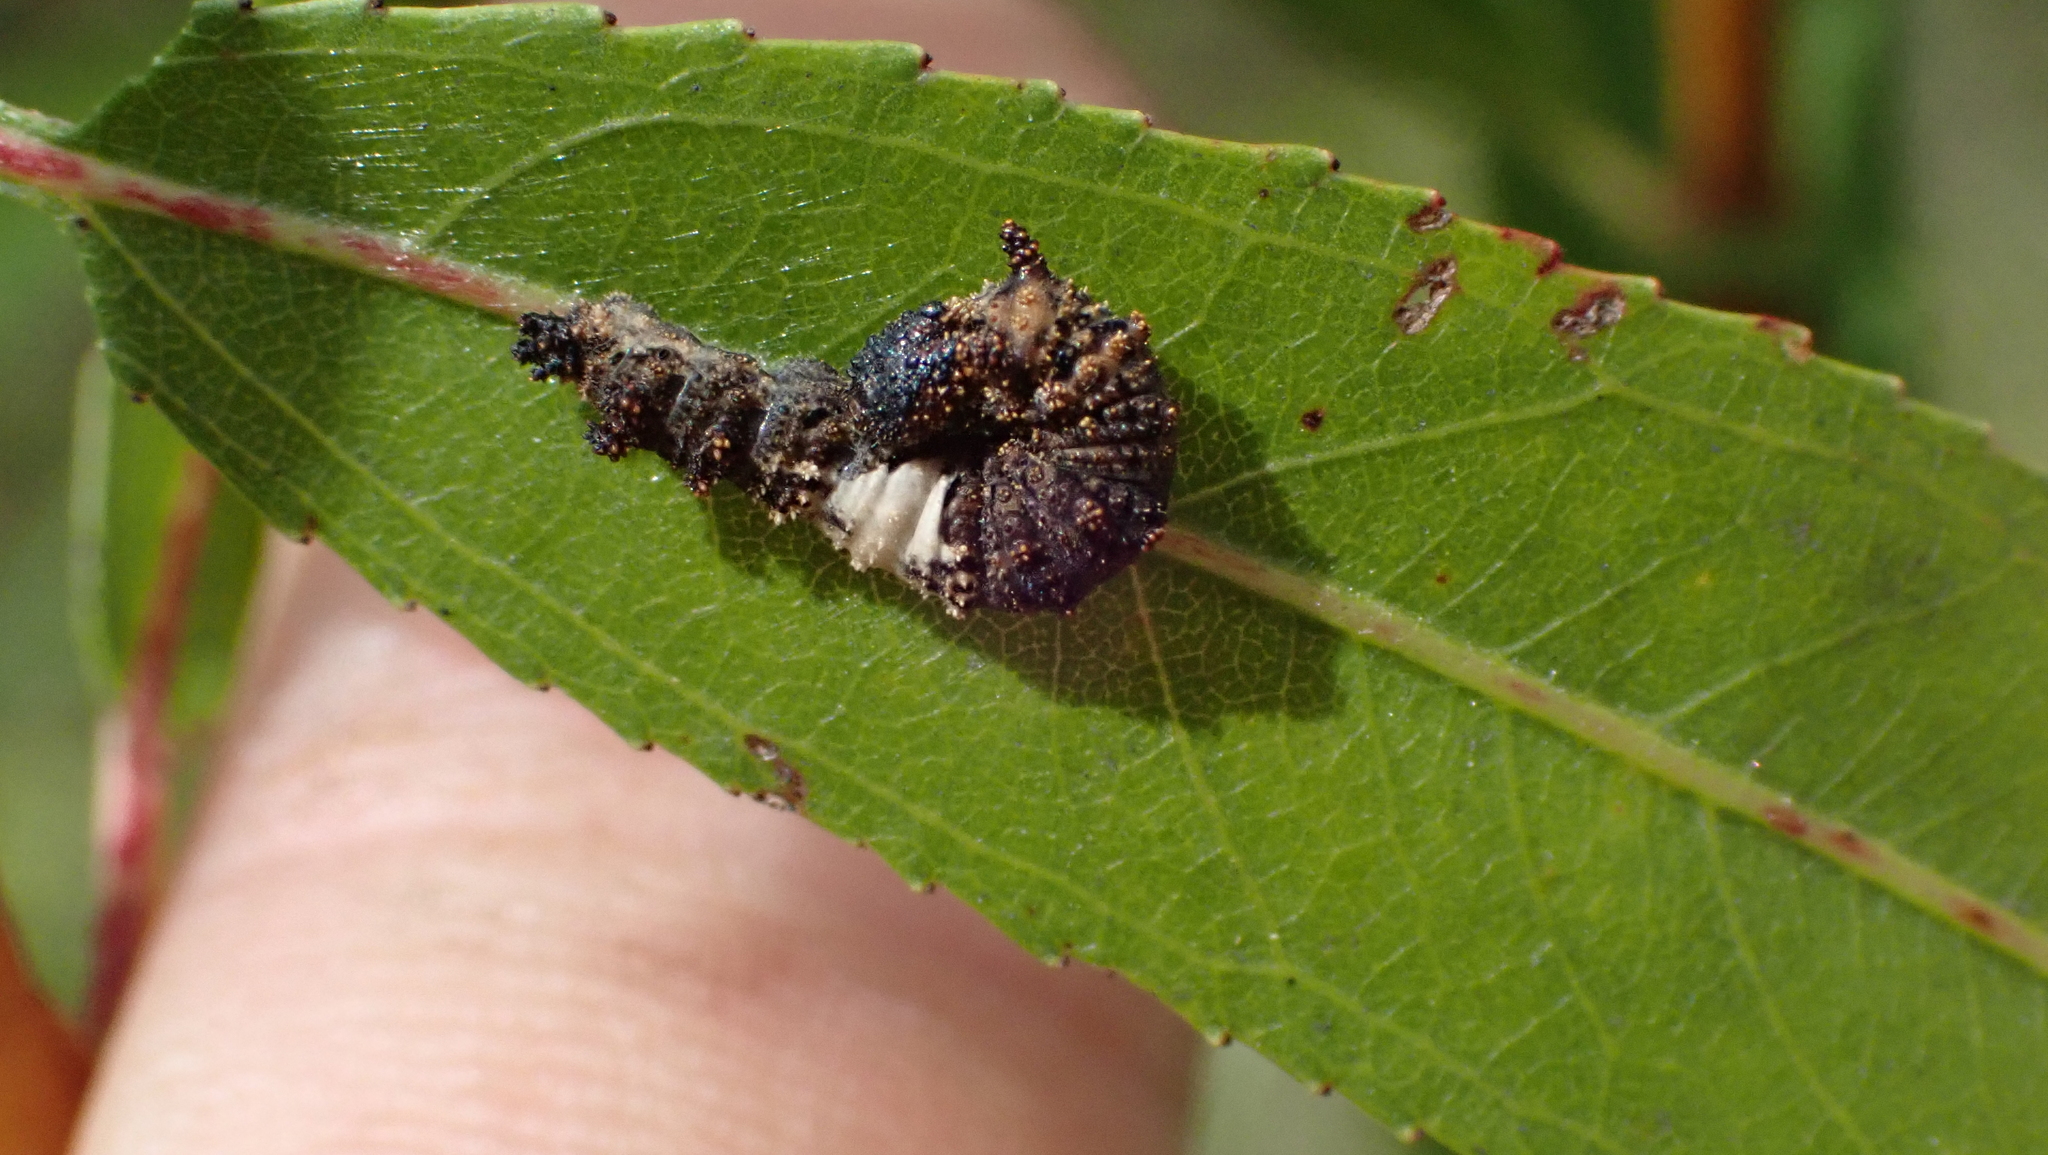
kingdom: Animalia
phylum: Arthropoda
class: Insecta
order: Lepidoptera
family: Nymphalidae
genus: Limenitis
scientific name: Limenitis
